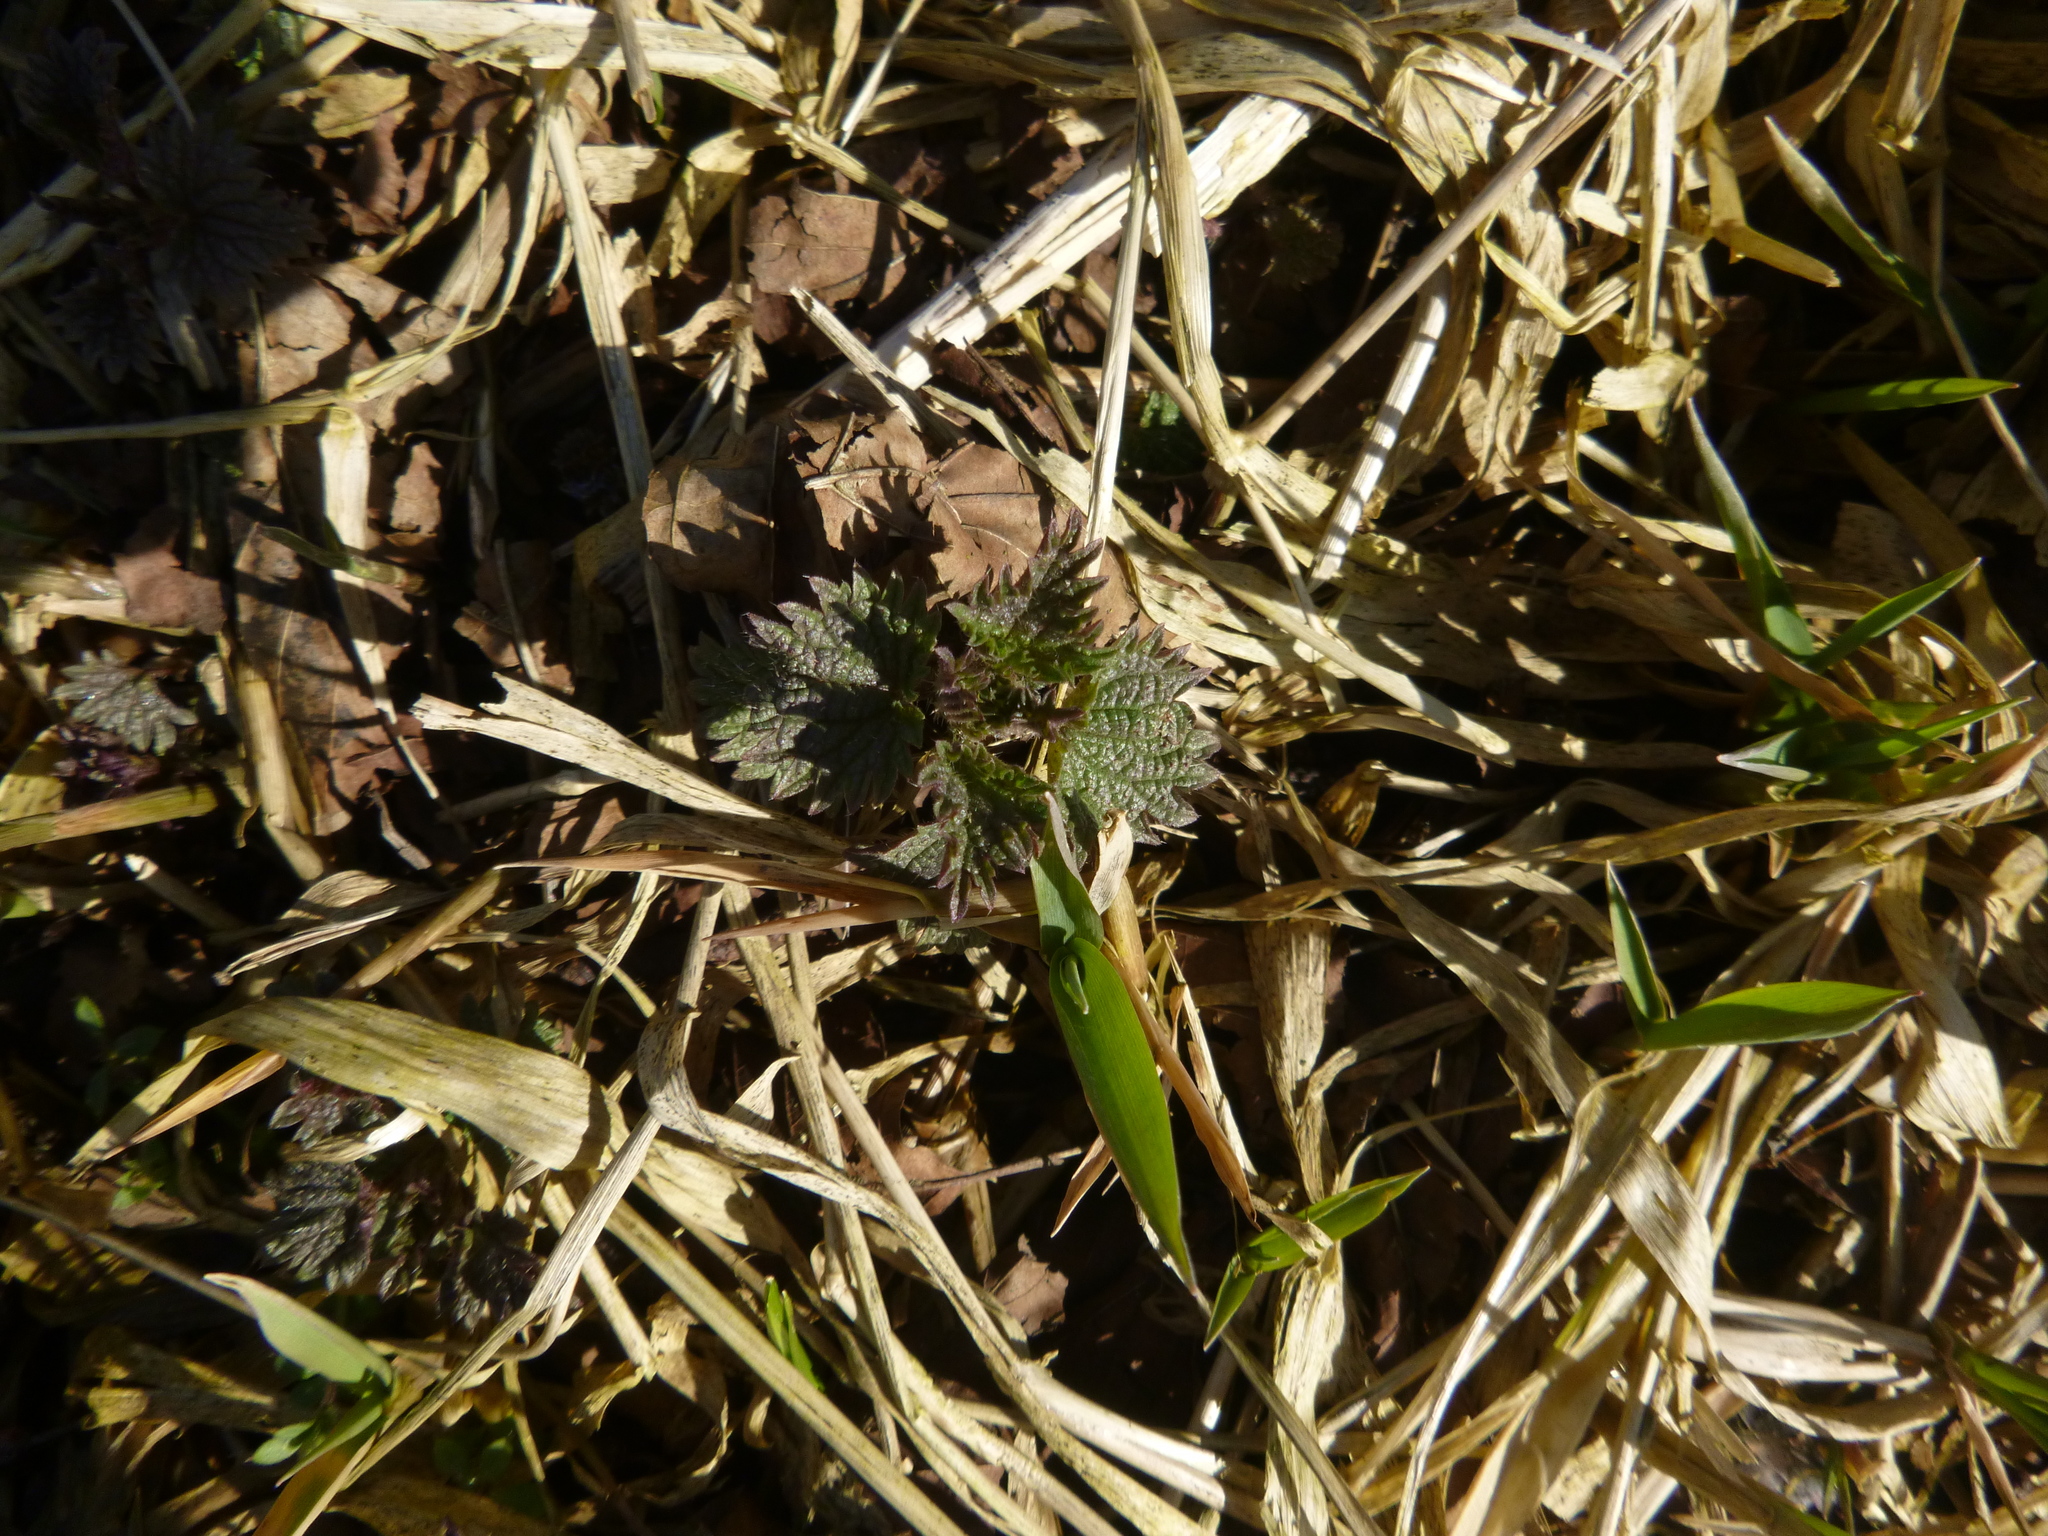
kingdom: Plantae
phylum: Tracheophyta
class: Magnoliopsida
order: Rosales
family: Urticaceae
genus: Urtica
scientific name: Urtica dioica
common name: Common nettle
